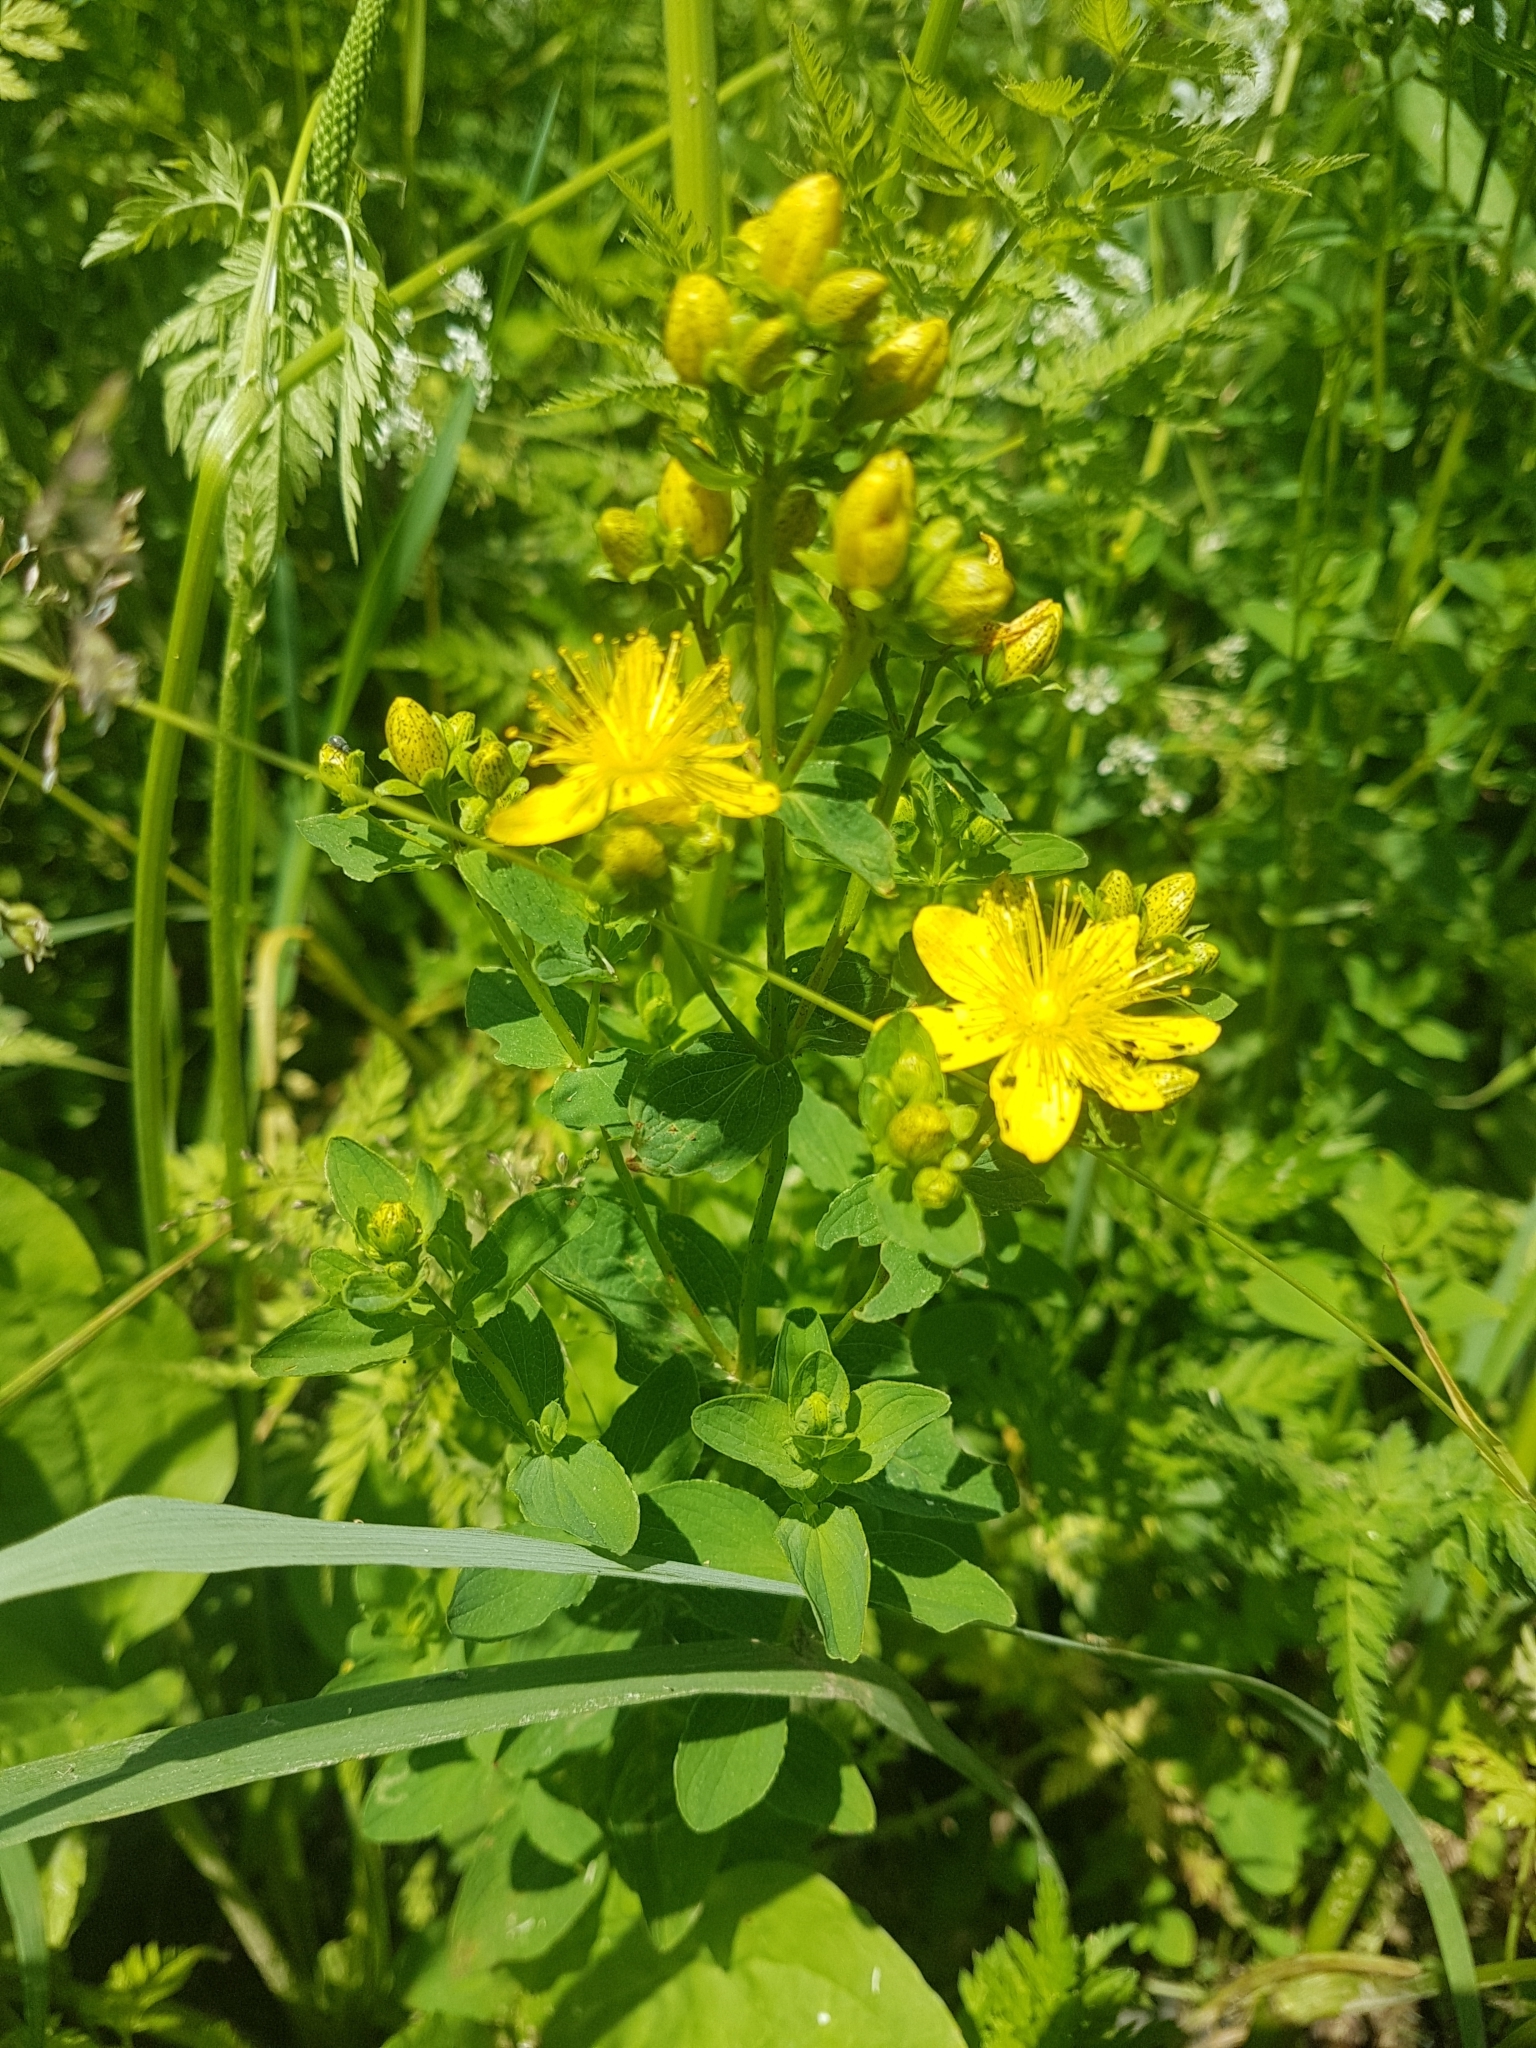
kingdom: Plantae
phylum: Tracheophyta
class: Magnoliopsida
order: Malpighiales
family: Hypericaceae
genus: Hypericum
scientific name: Hypericum maculatum
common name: Imperforate st. john's-wort
